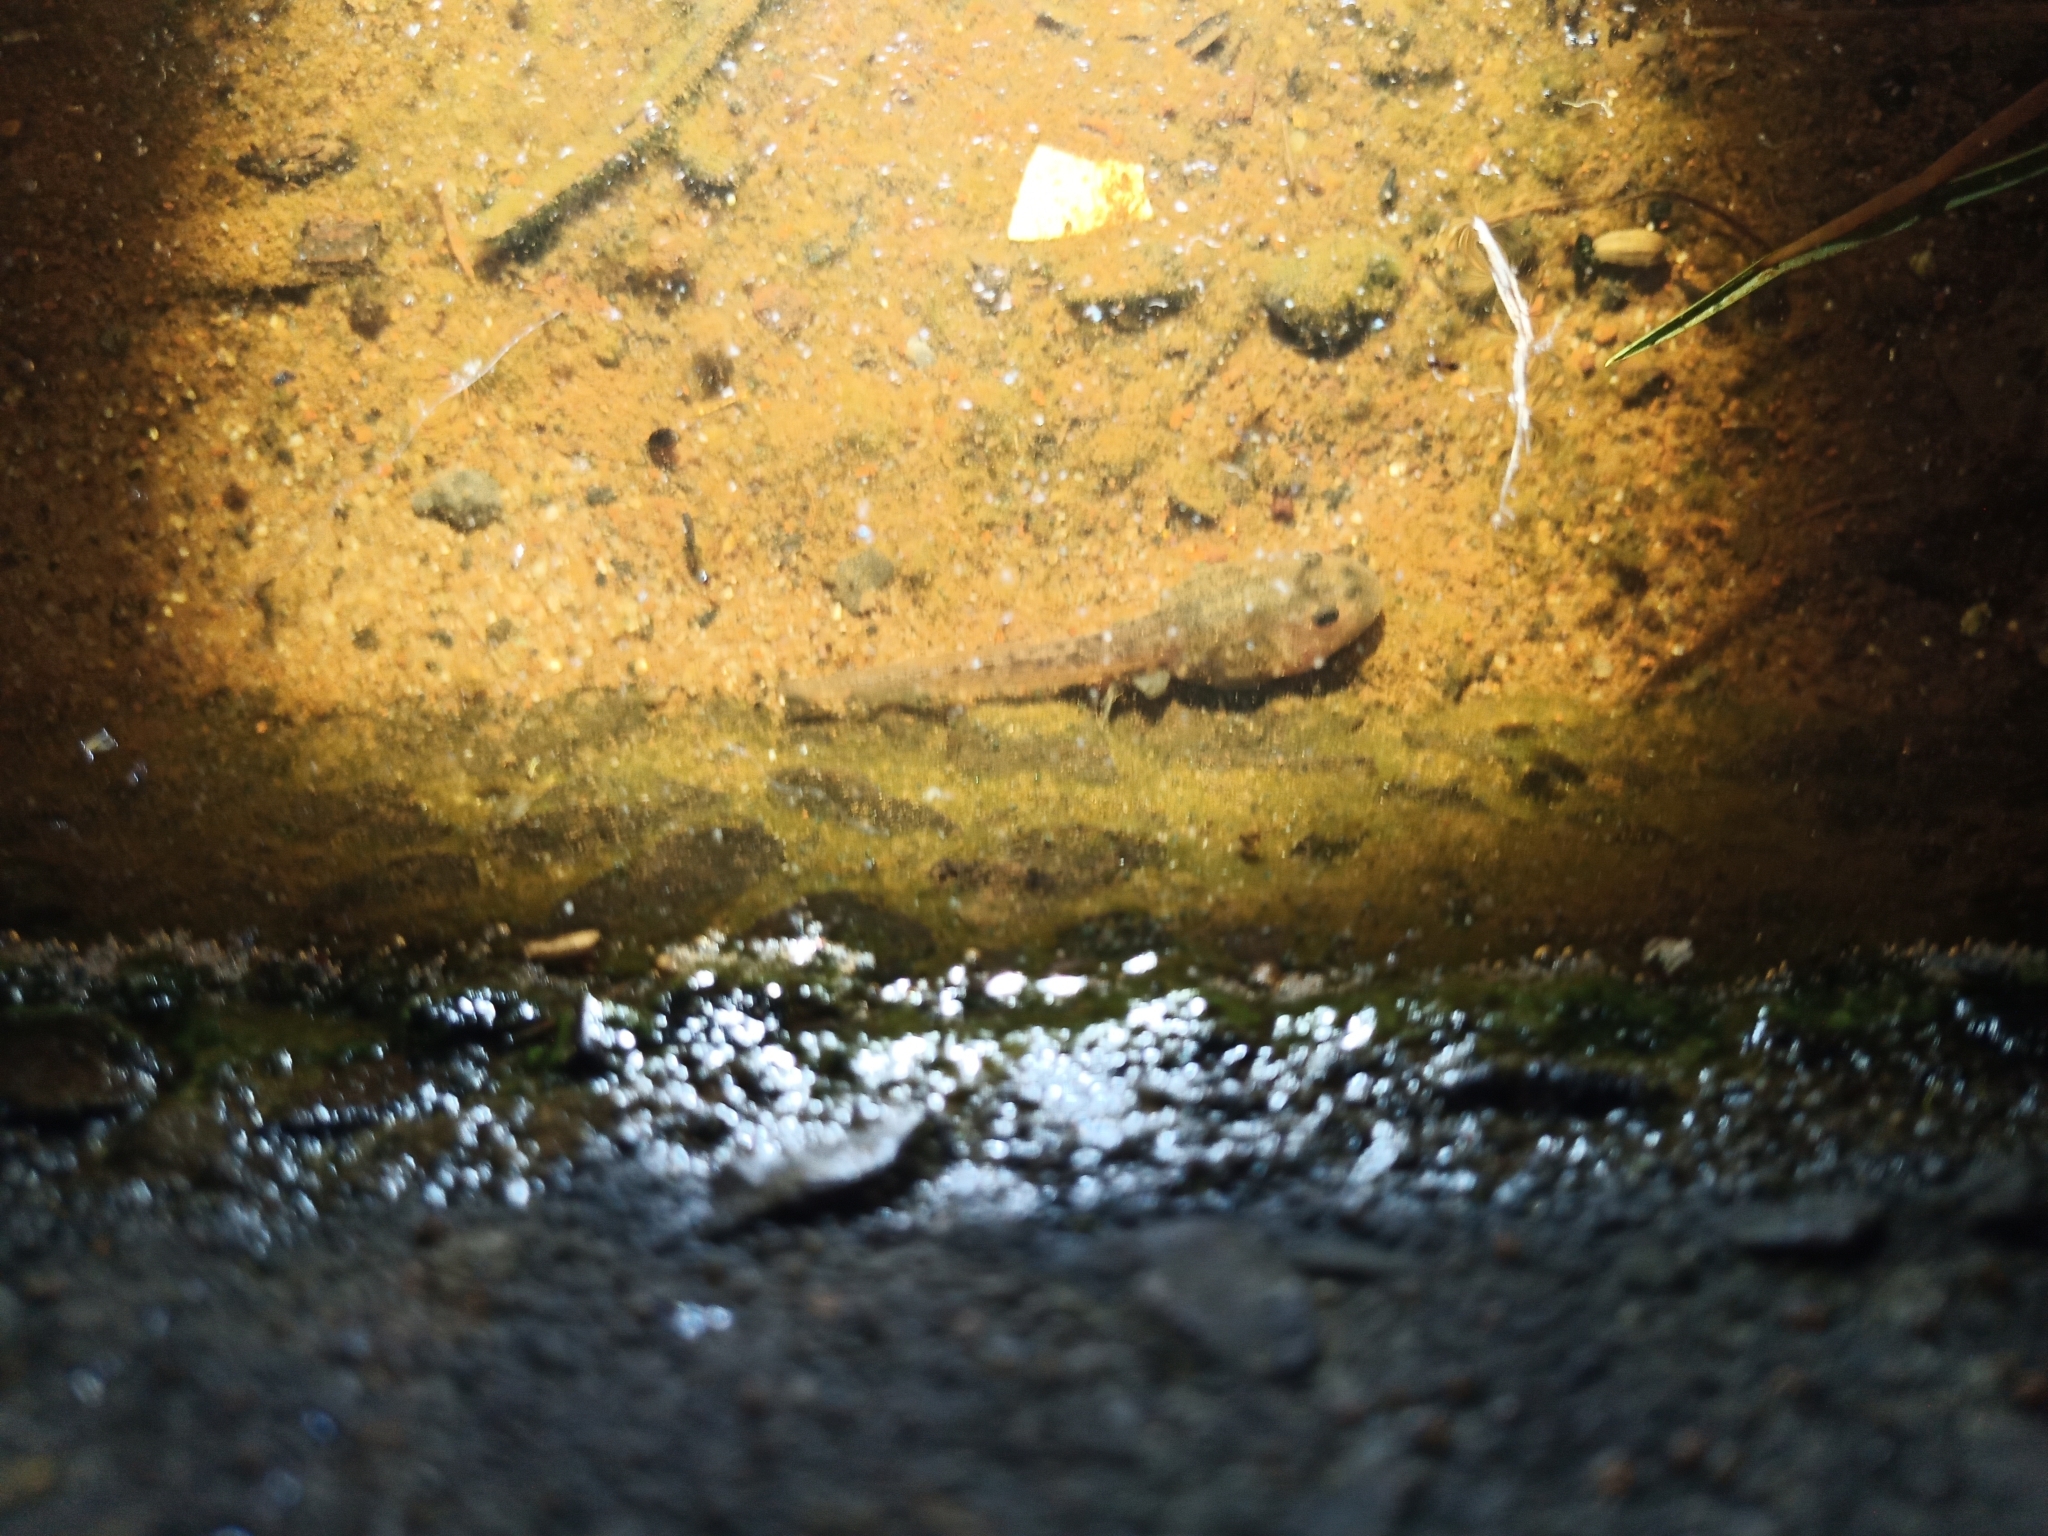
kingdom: Animalia
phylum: Chordata
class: Amphibia
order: Anura
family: Pyxicephalidae
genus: Strongylopus
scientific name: Strongylopus grayii
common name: Gray's stream frog
